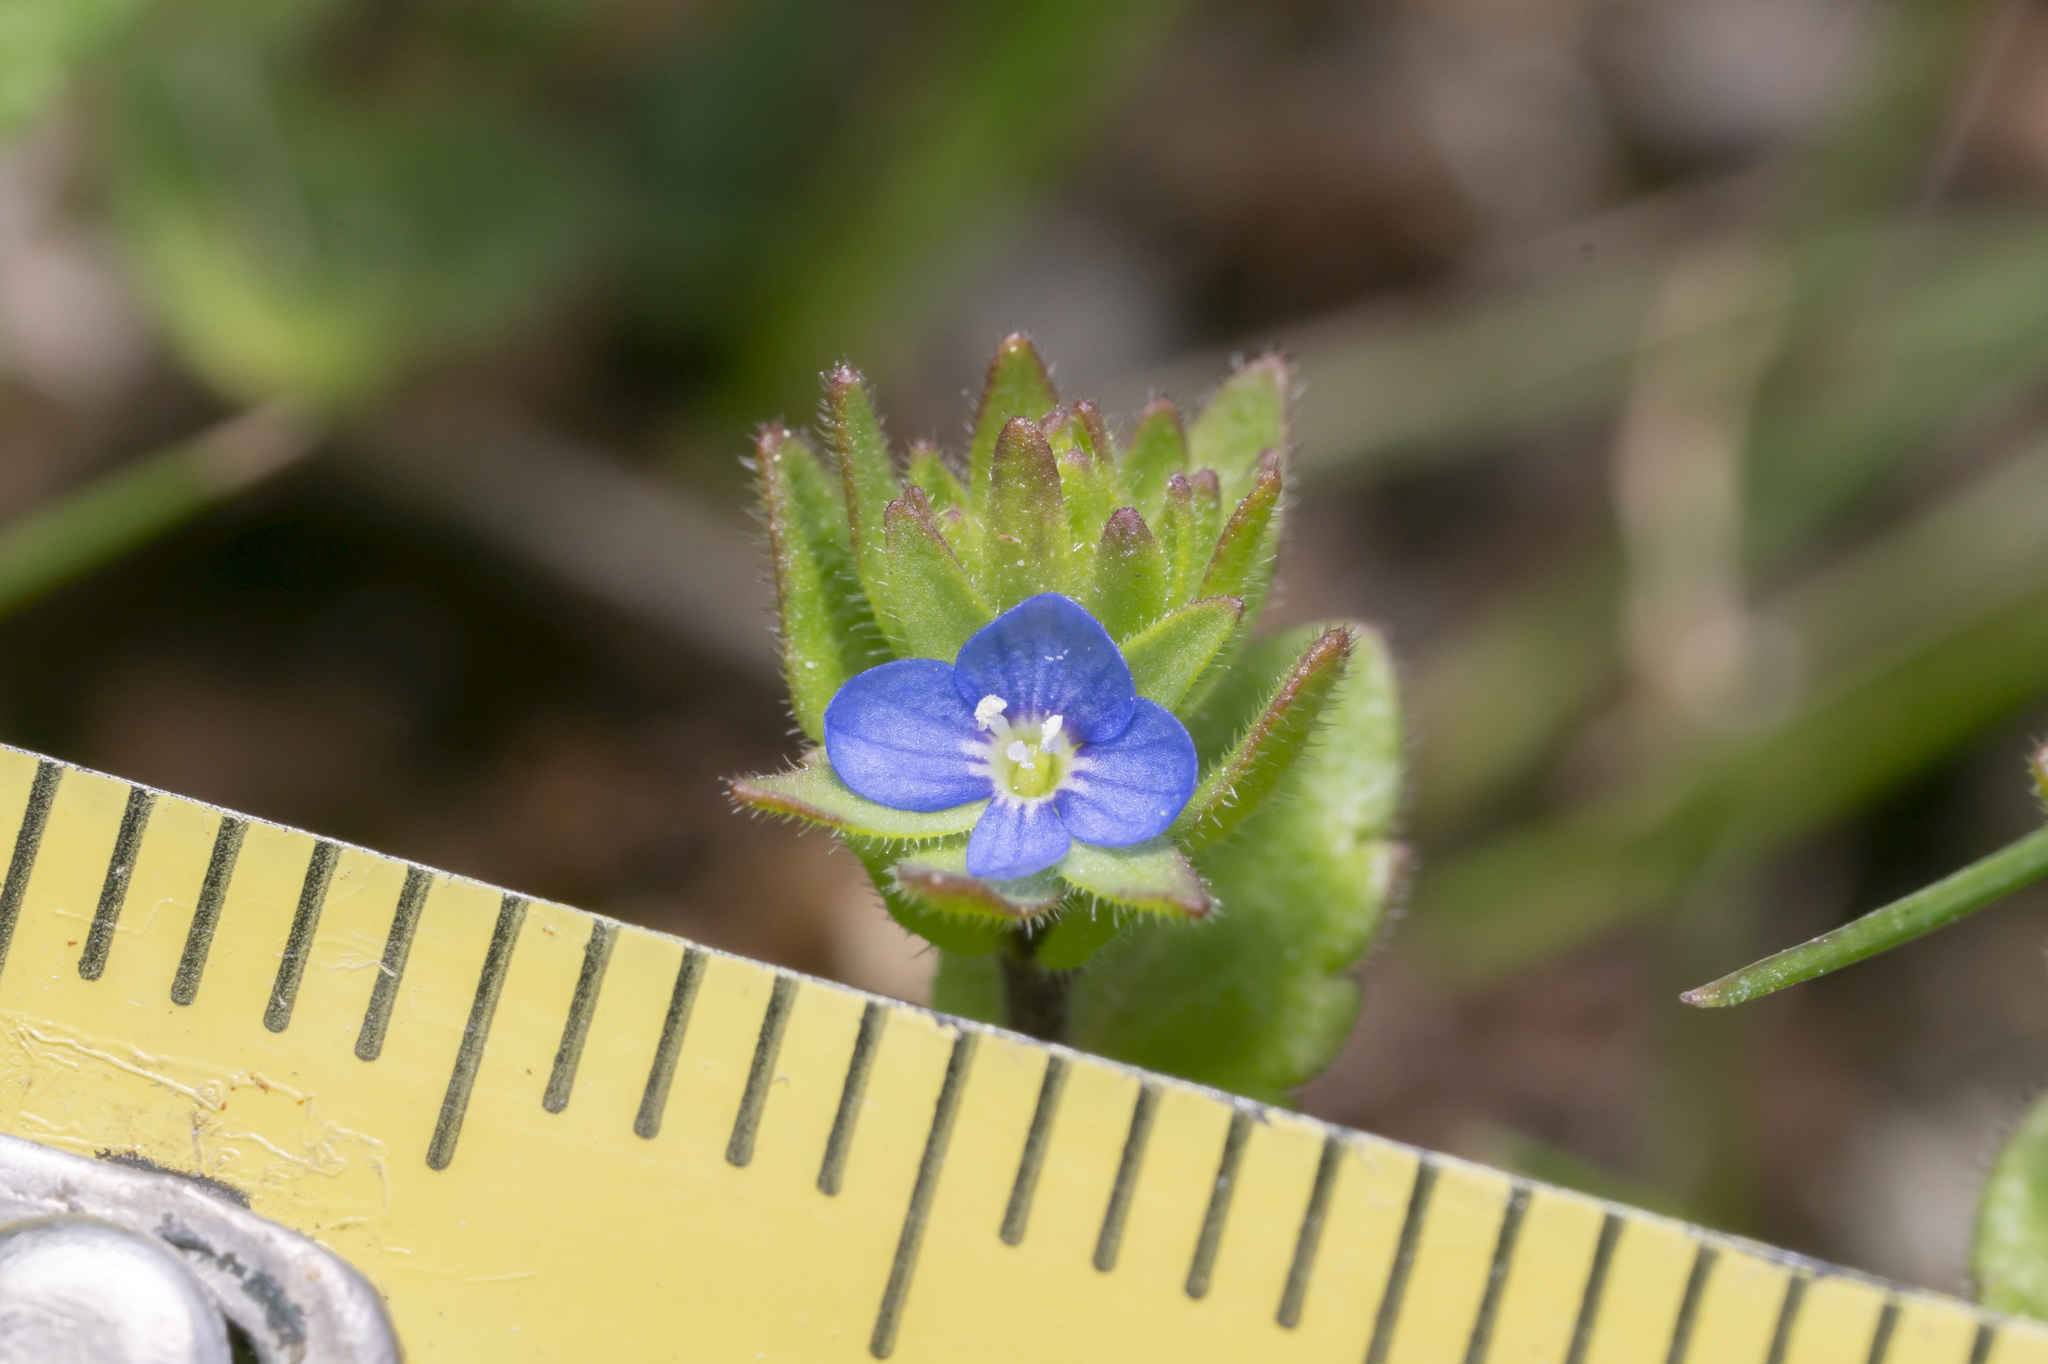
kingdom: Plantae
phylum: Tracheophyta
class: Magnoliopsida
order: Lamiales
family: Plantaginaceae
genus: Veronica
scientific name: Veronica arvensis
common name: Corn speedwell
